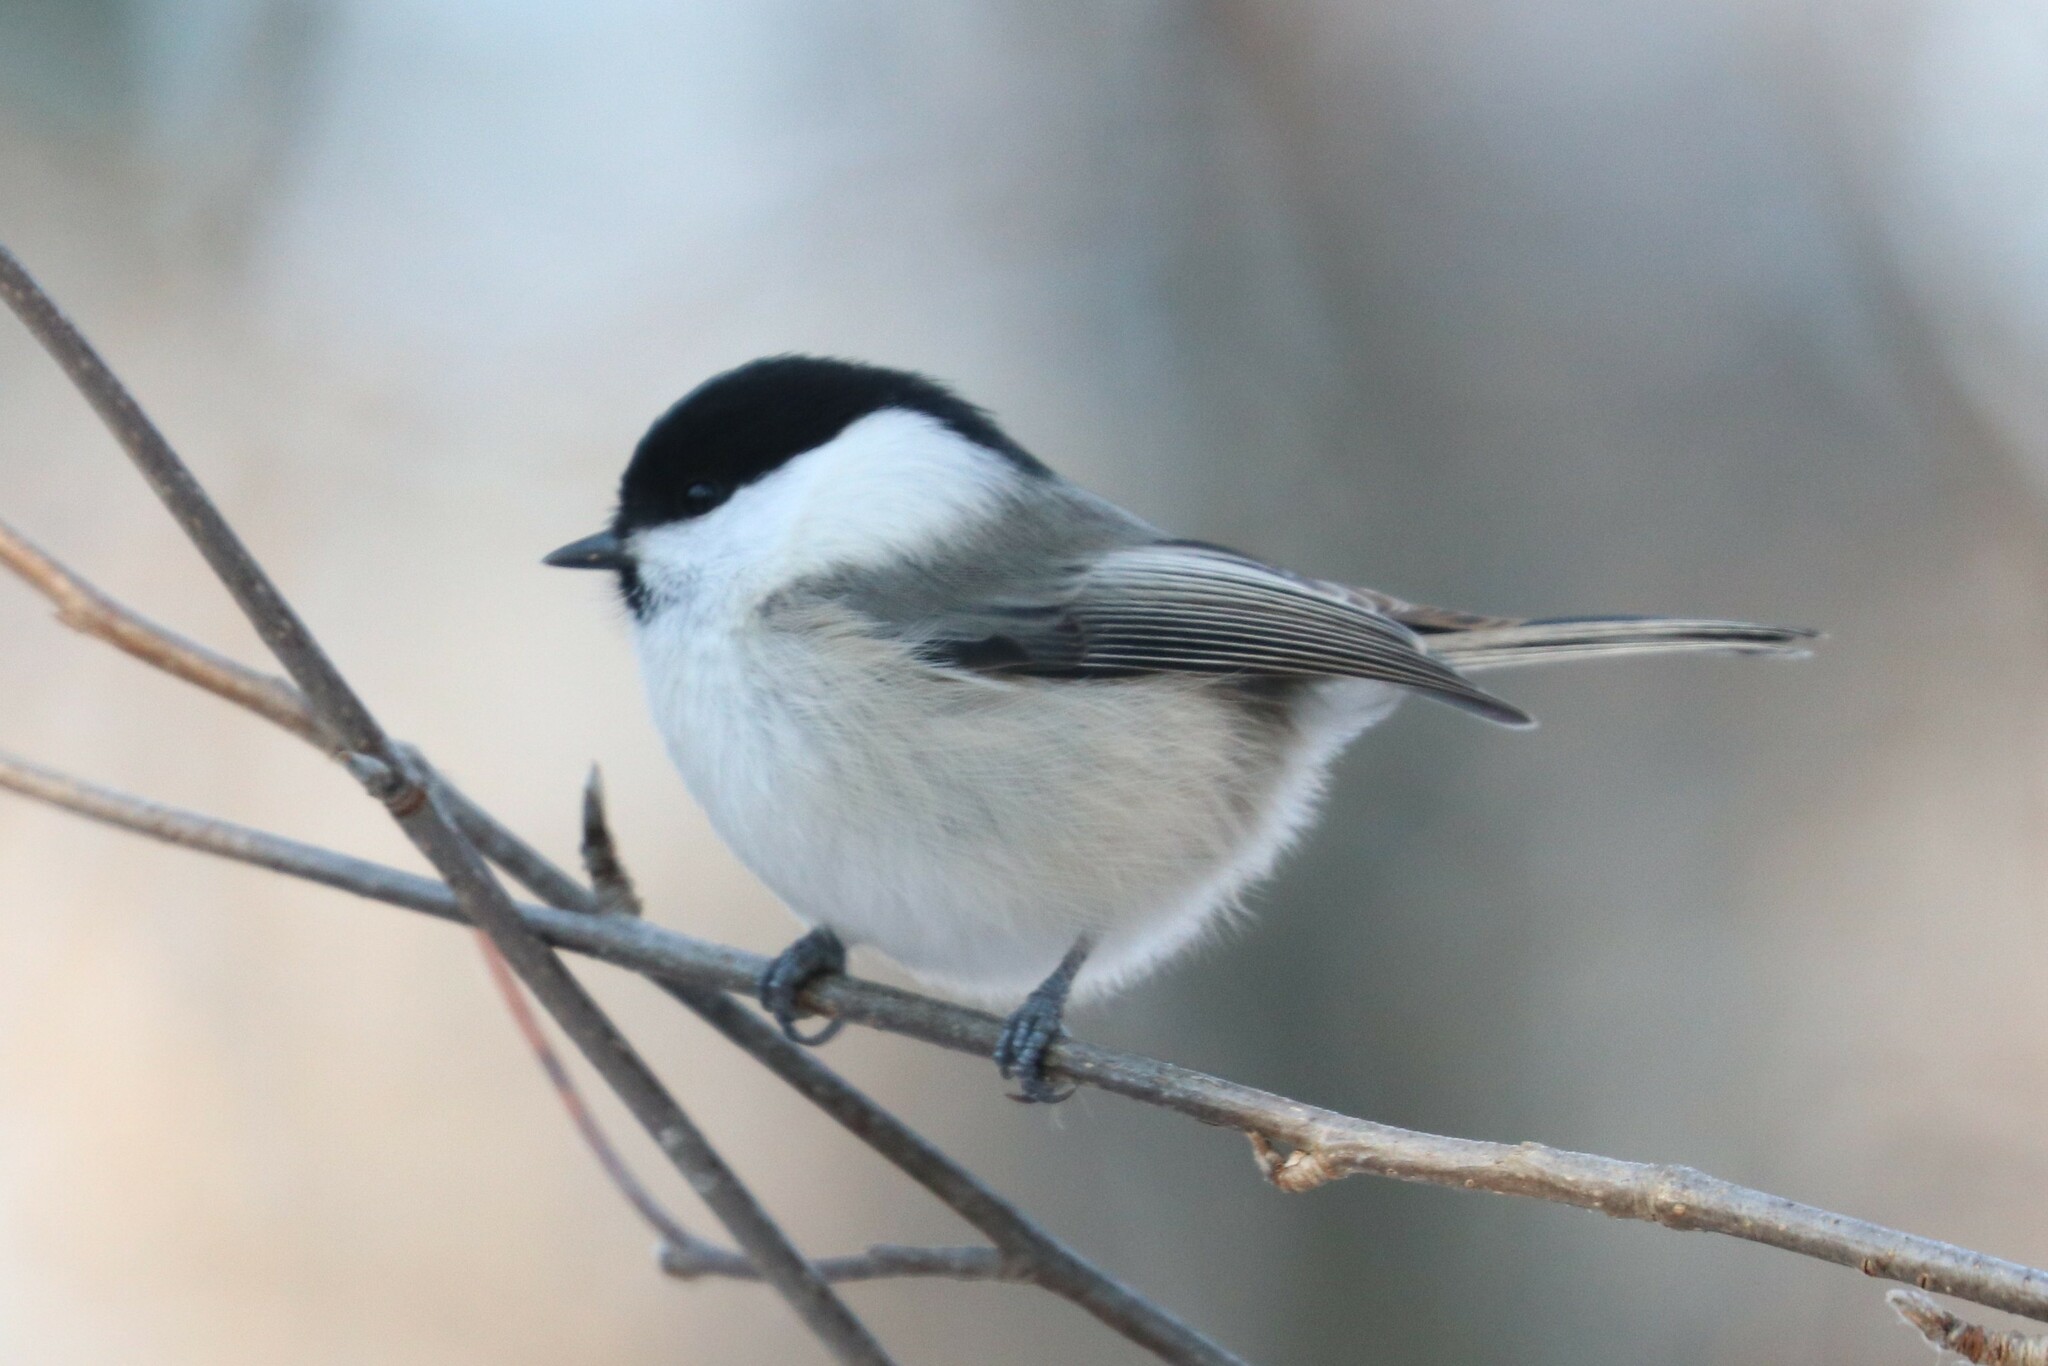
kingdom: Animalia
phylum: Chordata
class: Aves
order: Passeriformes
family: Paridae
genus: Poecile
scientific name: Poecile montanus
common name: Willow tit
